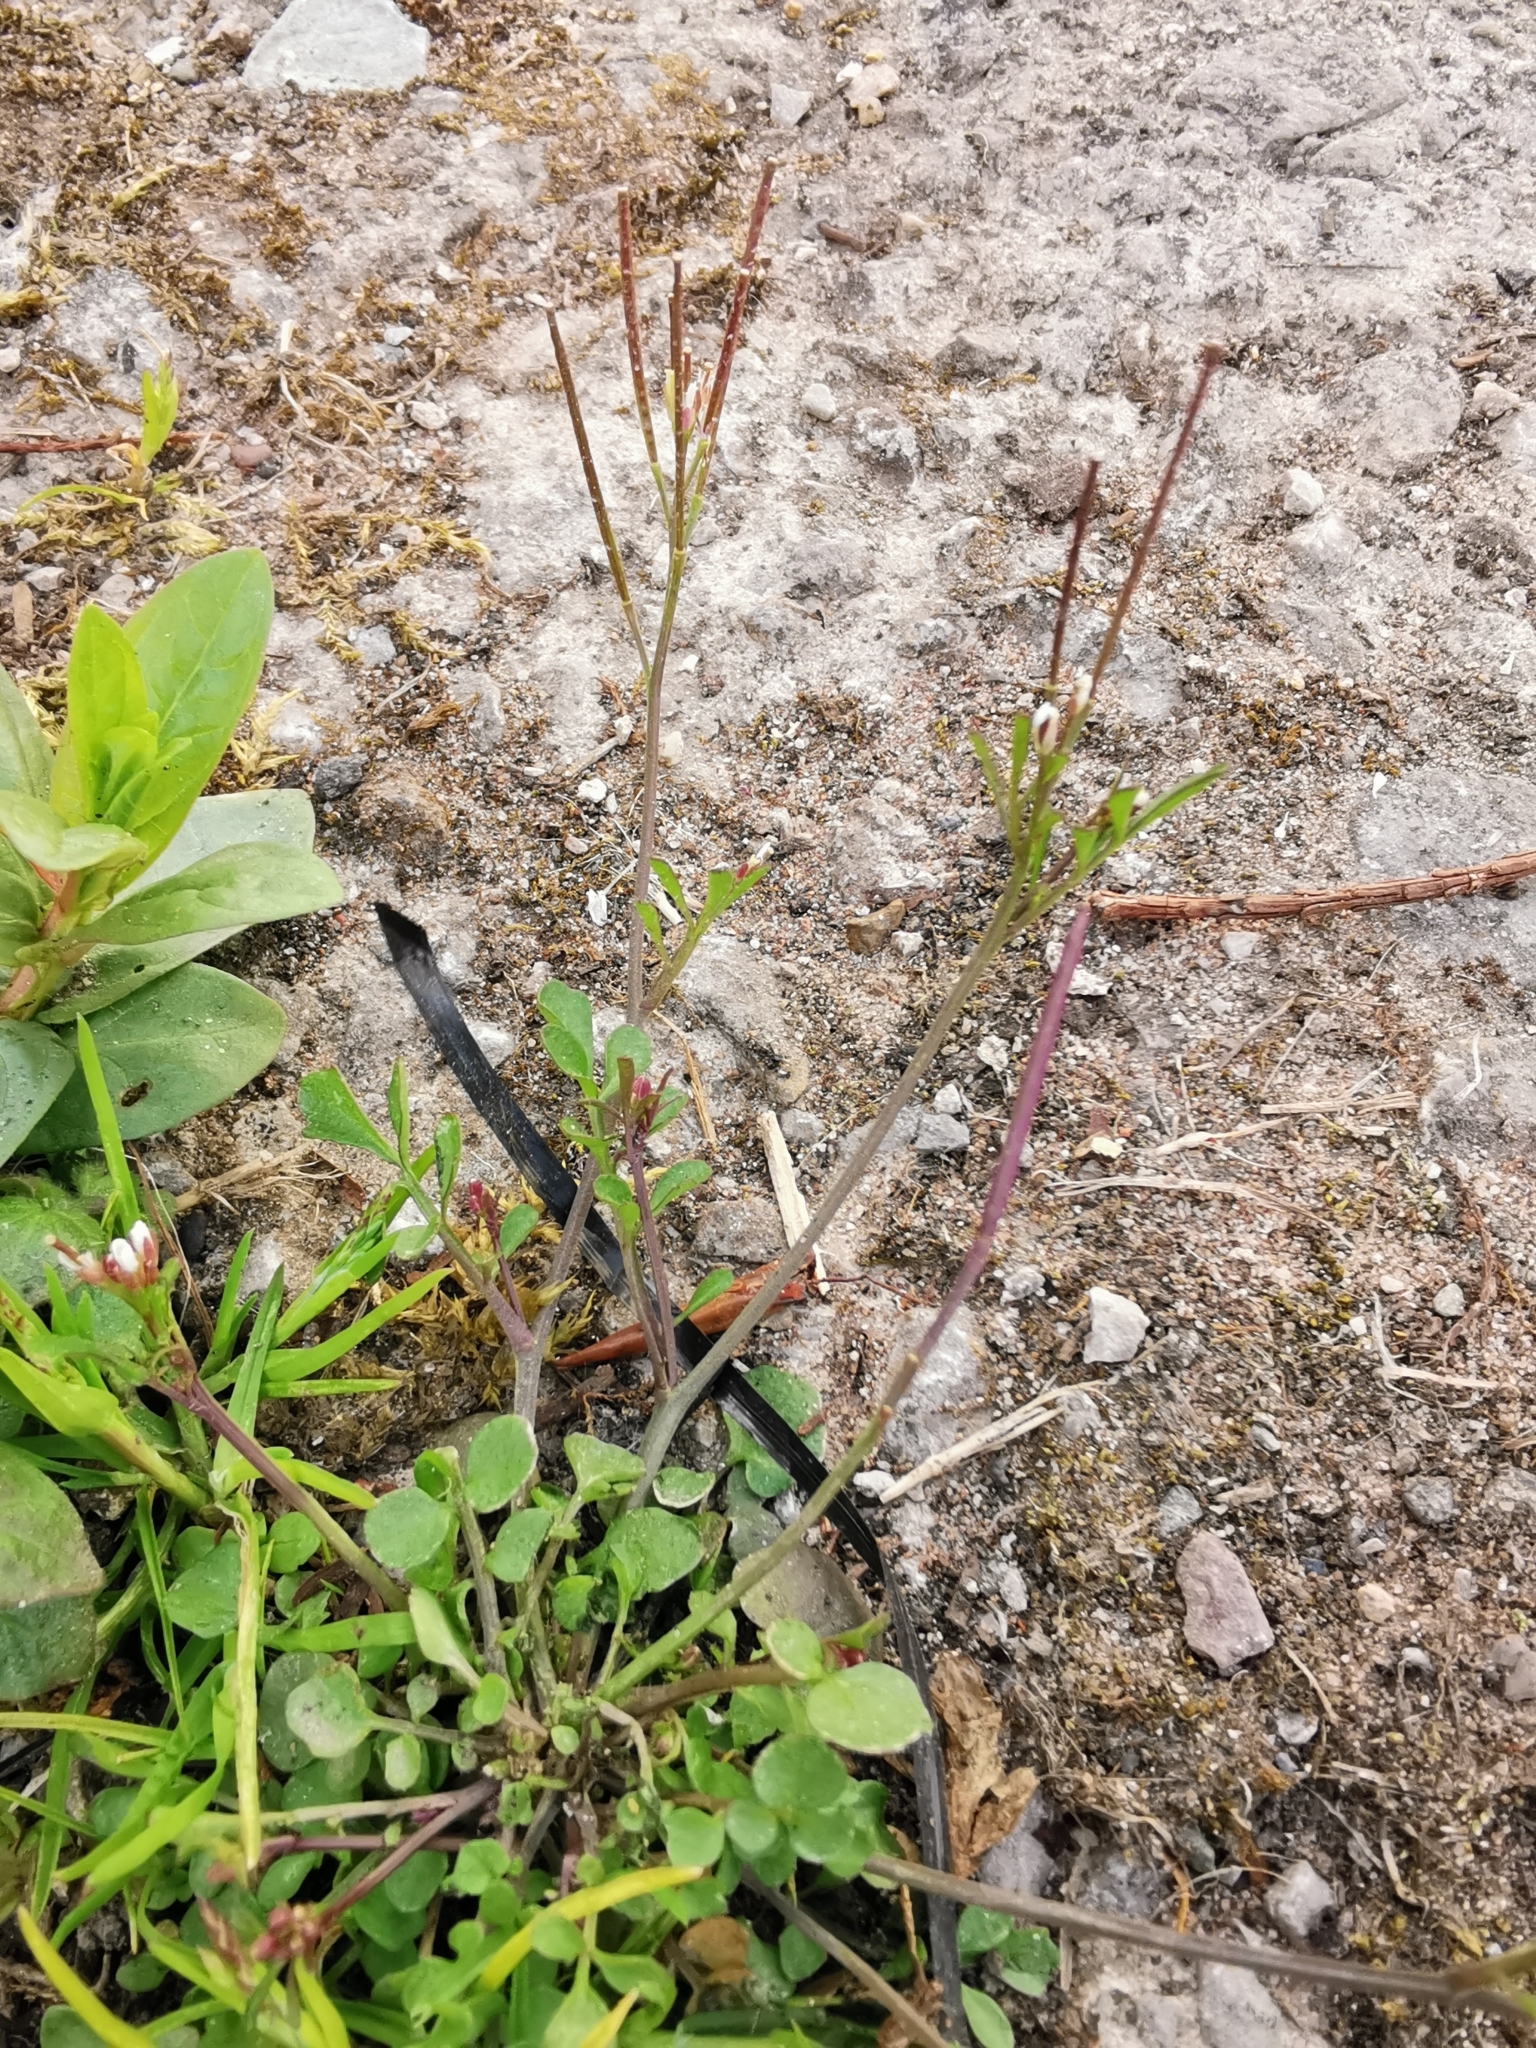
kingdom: Plantae
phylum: Tracheophyta
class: Magnoliopsida
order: Brassicales
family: Brassicaceae
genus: Cardamine
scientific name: Cardamine hirsuta
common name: Hairy bittercress
